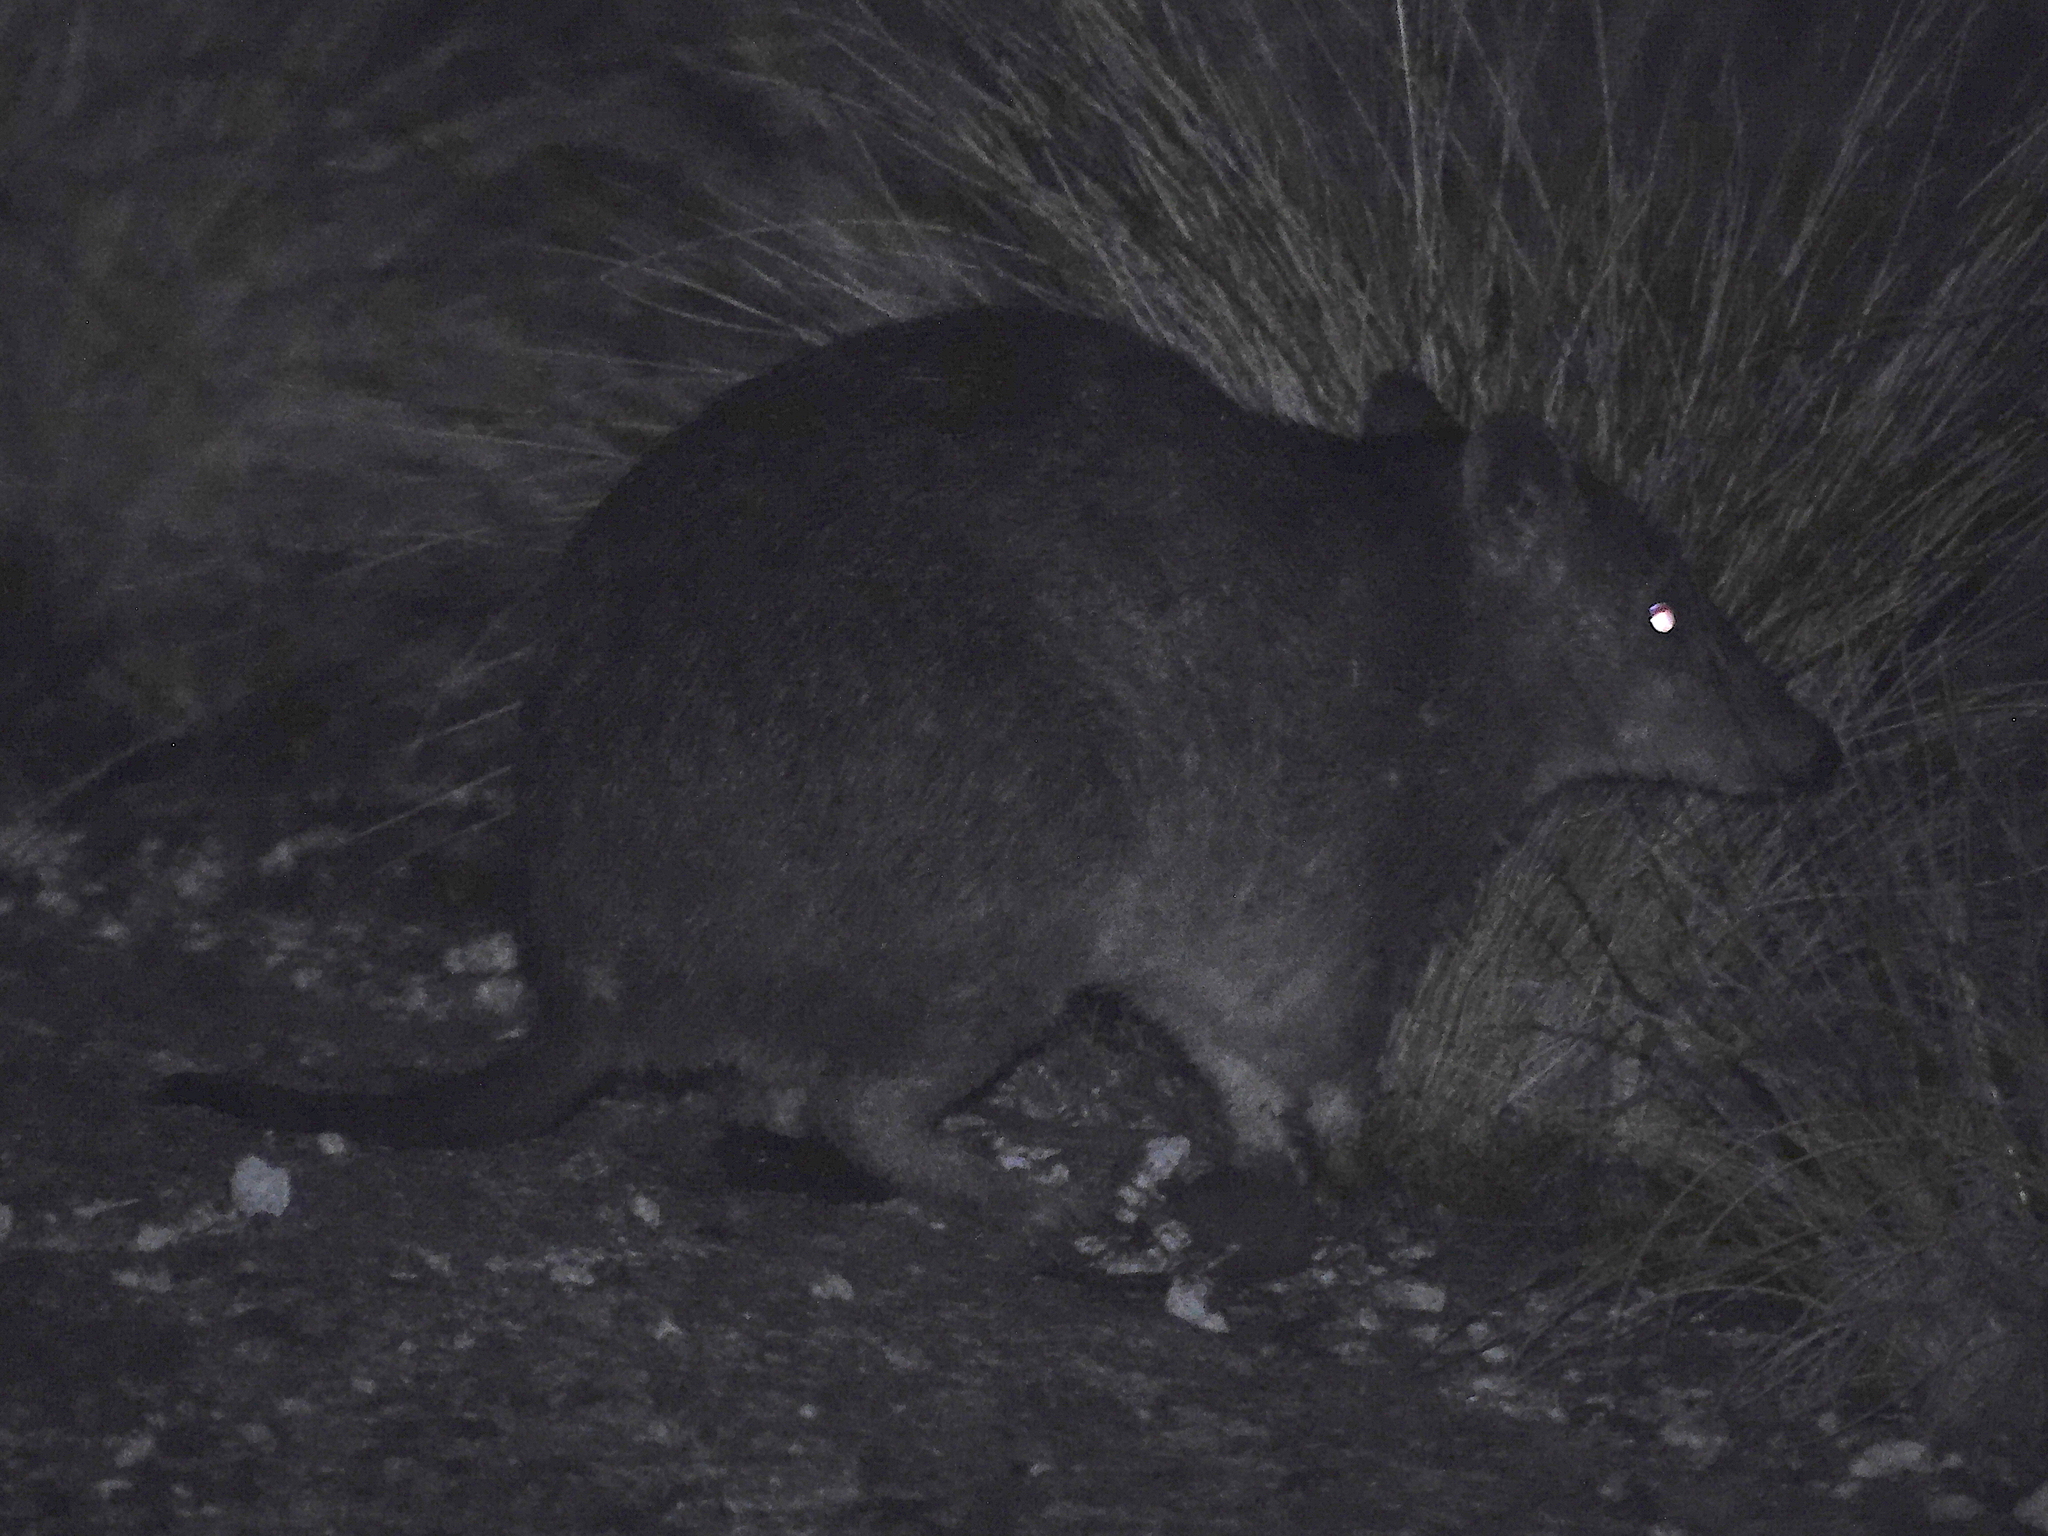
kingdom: Animalia
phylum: Chordata
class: Mammalia
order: Peramelemorphia
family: Peramelidae
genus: Isoodon
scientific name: Isoodon obesulus
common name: Southern brown bandicoot
